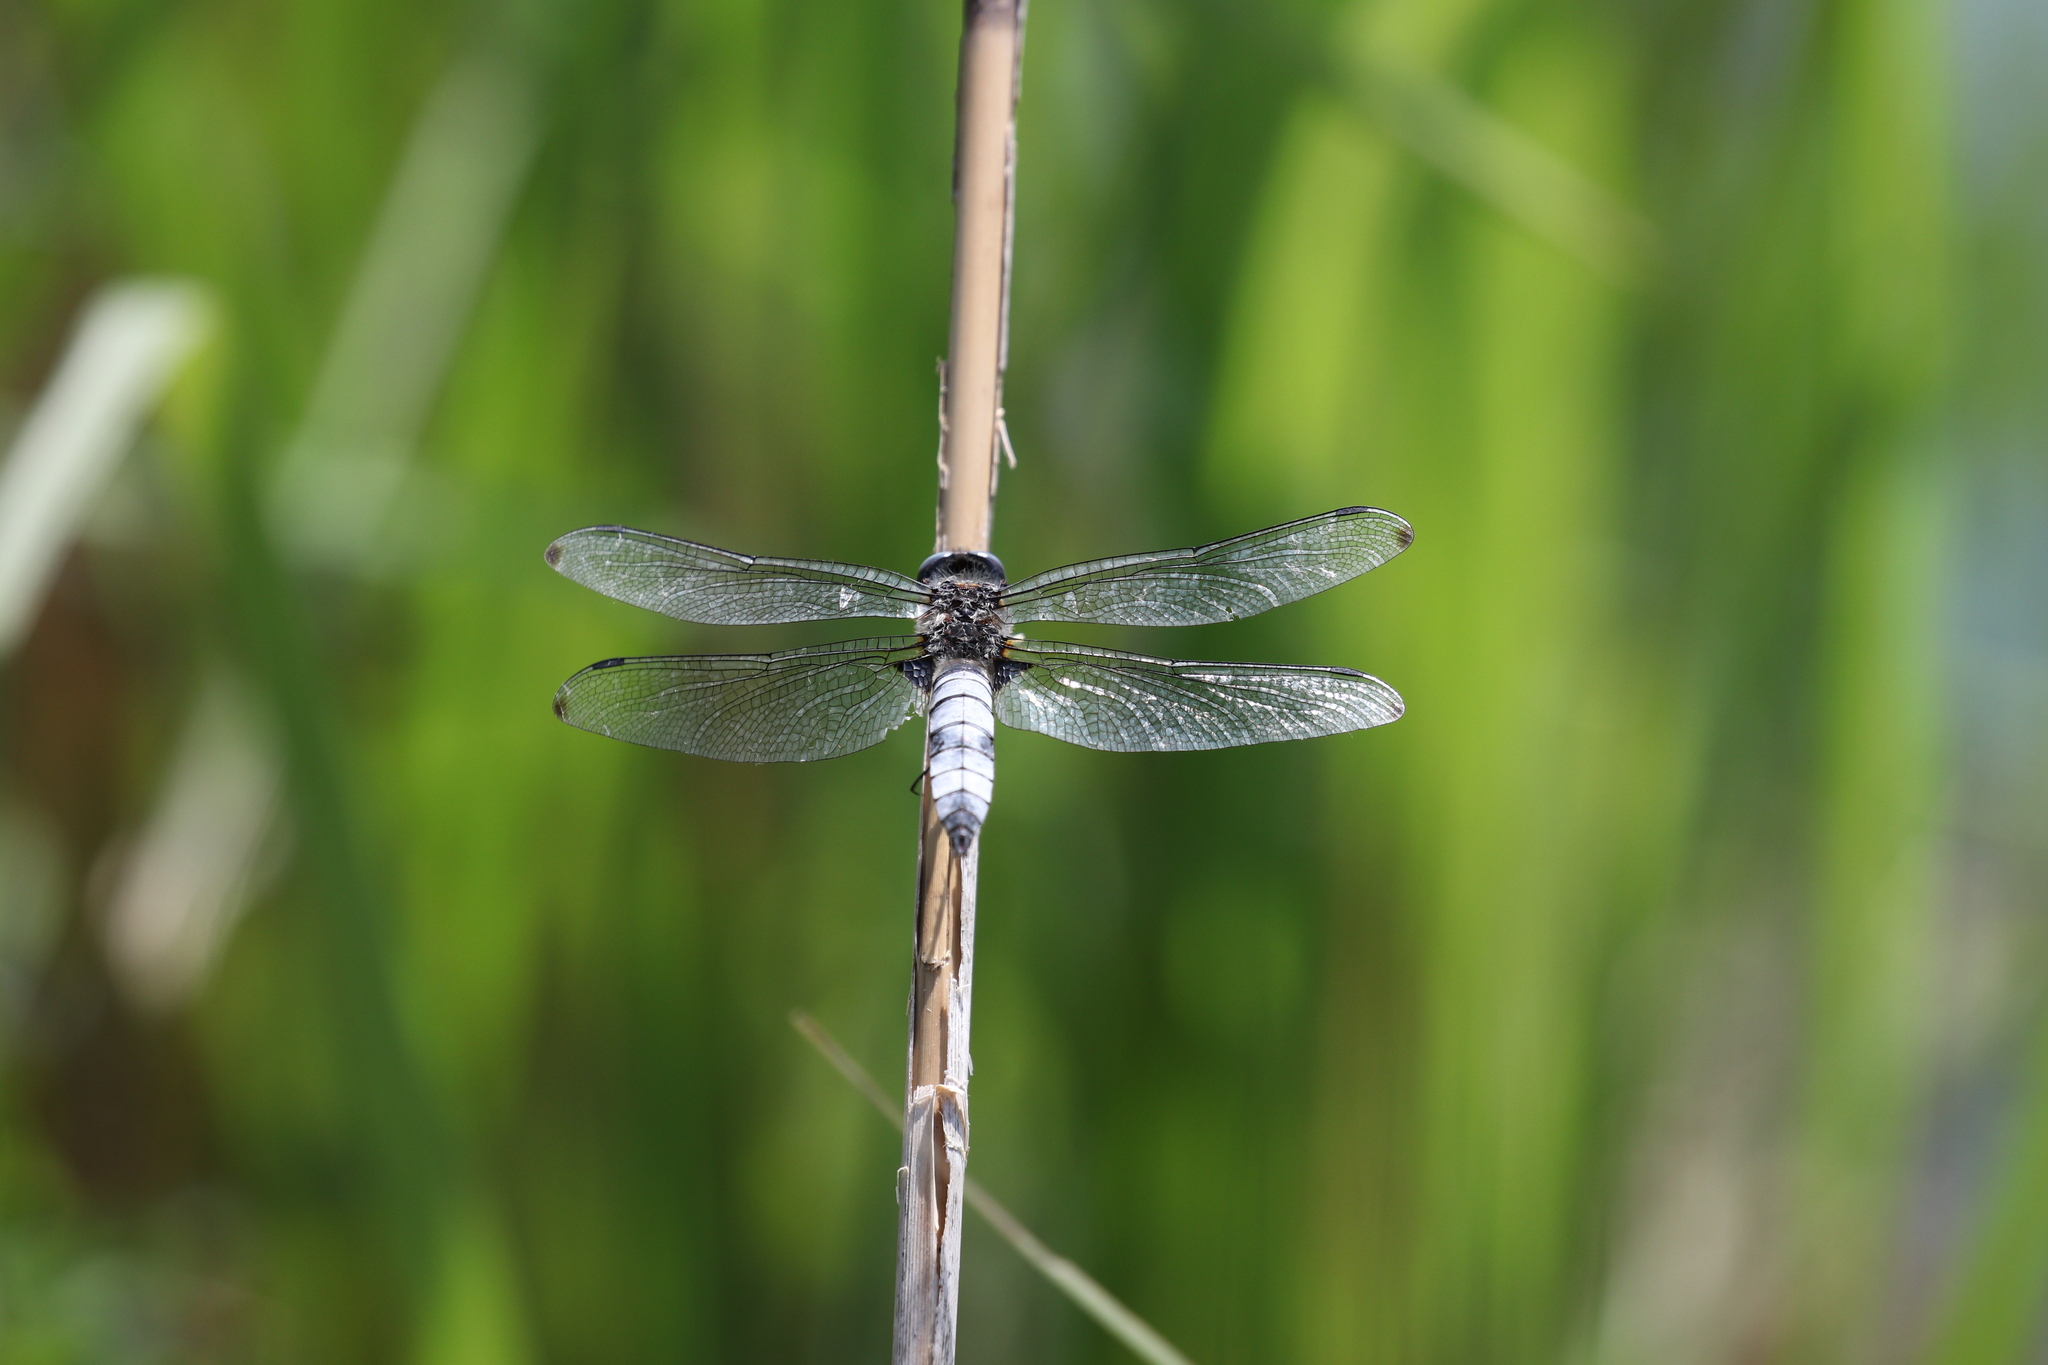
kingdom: Animalia
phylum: Arthropoda
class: Insecta
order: Odonata
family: Libellulidae
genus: Libellula
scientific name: Libellula fulva
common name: Blue chaser
